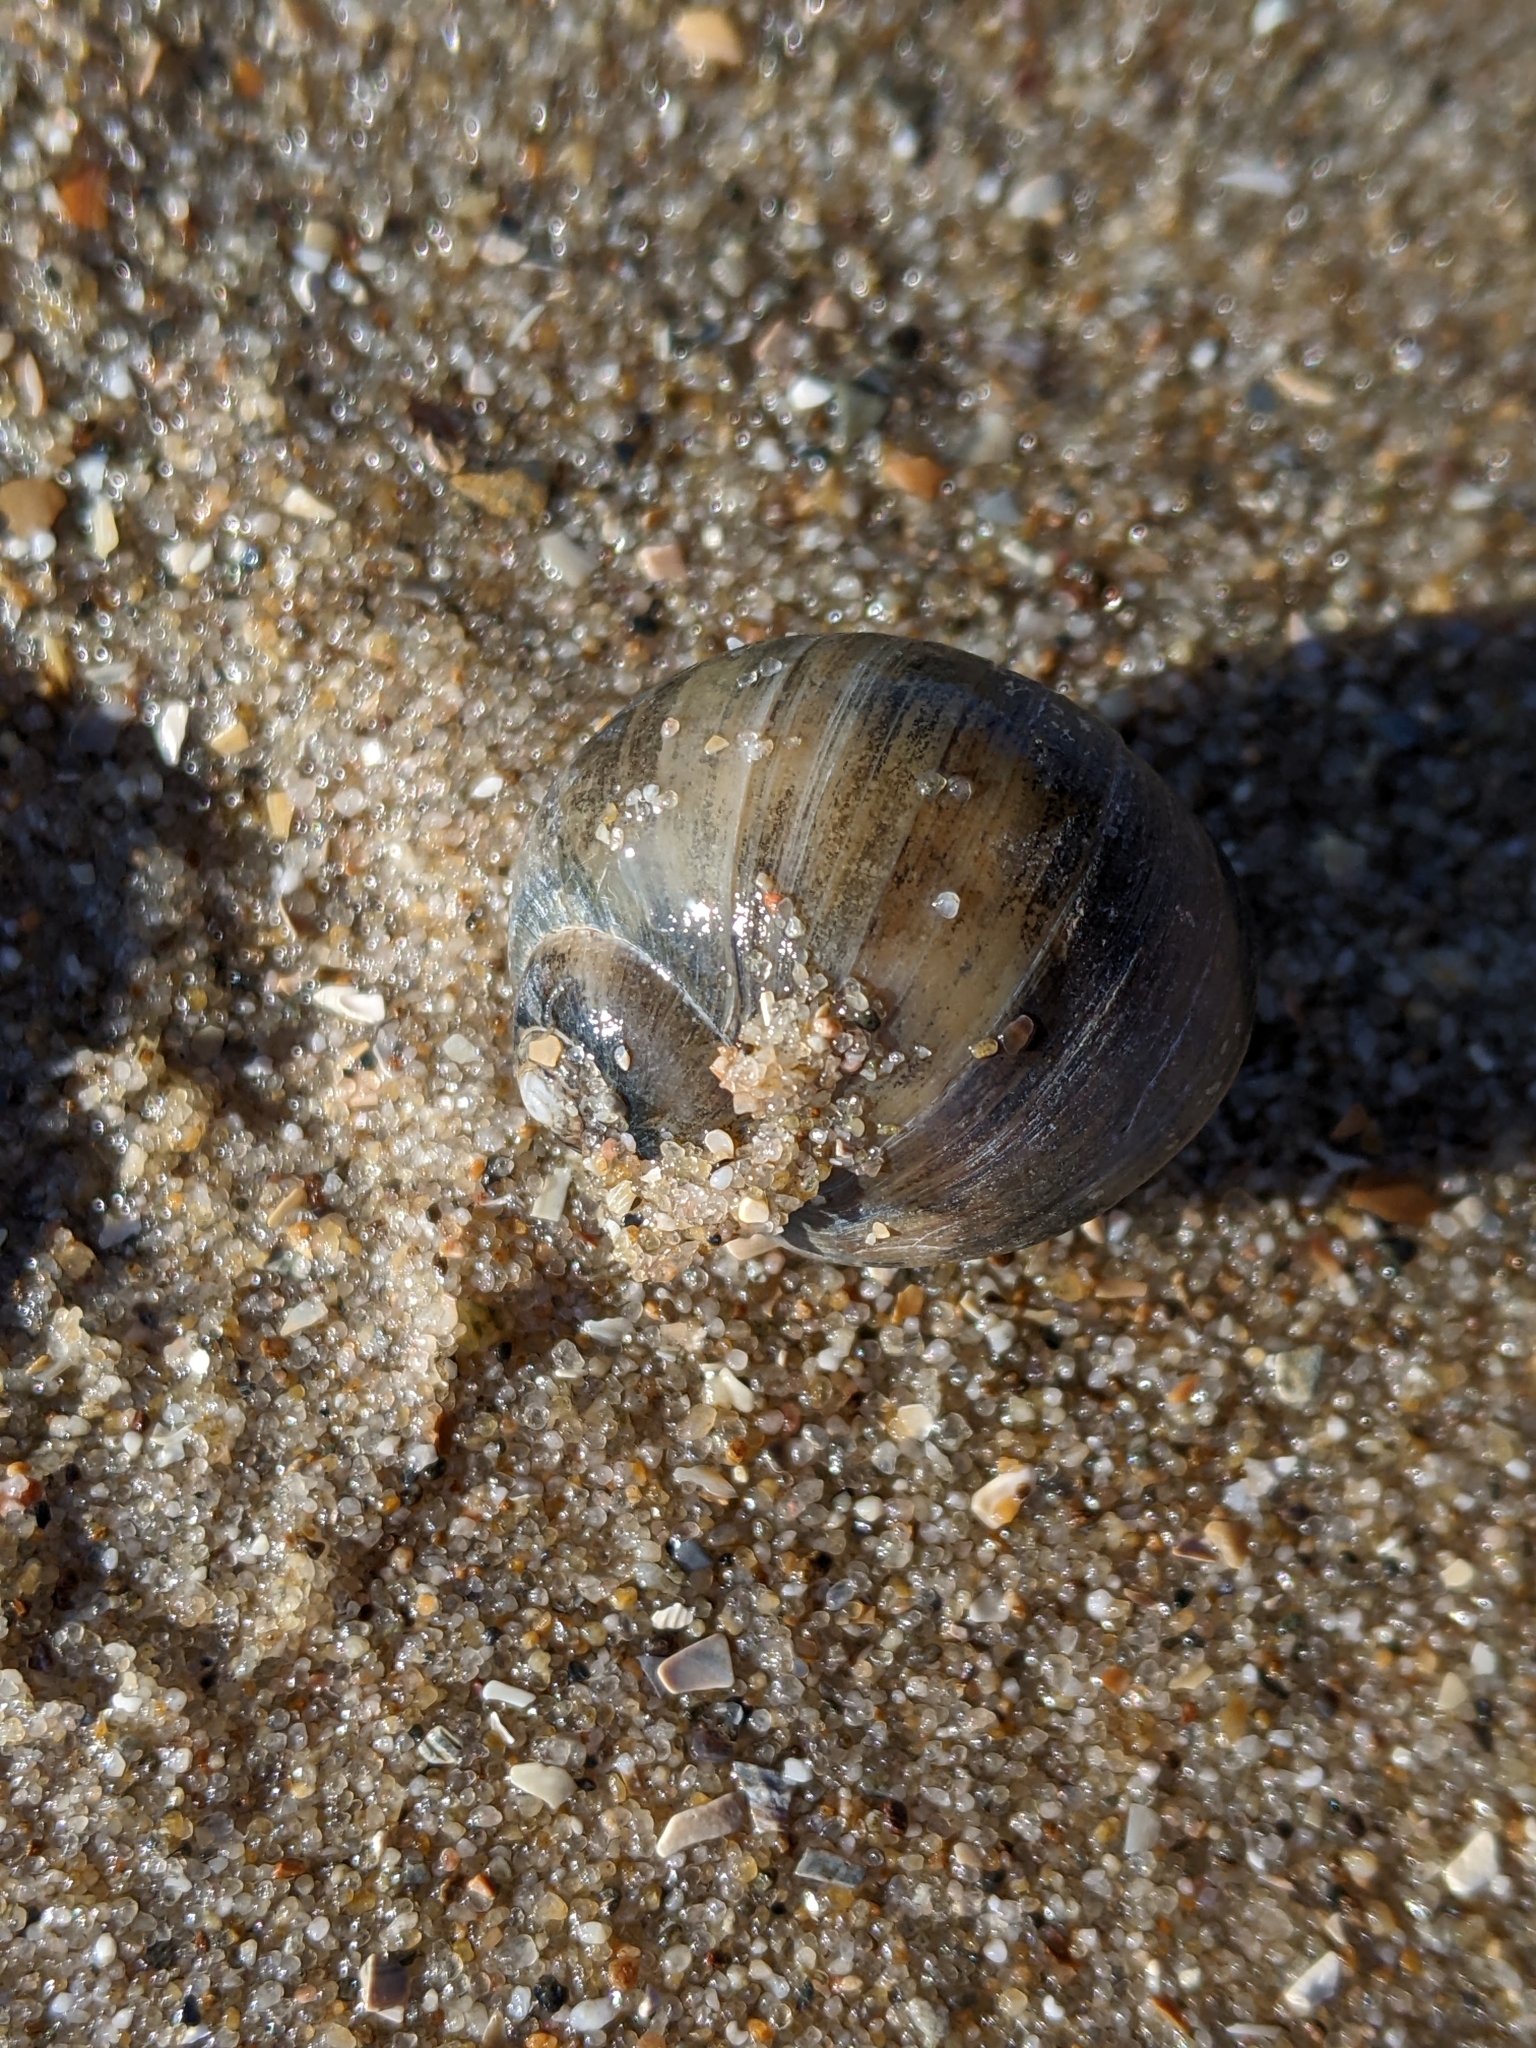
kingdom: Animalia
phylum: Mollusca
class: Gastropoda
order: Littorinimorpha
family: Naticidae
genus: Euspira
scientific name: Euspira catena
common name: Necklace shell
